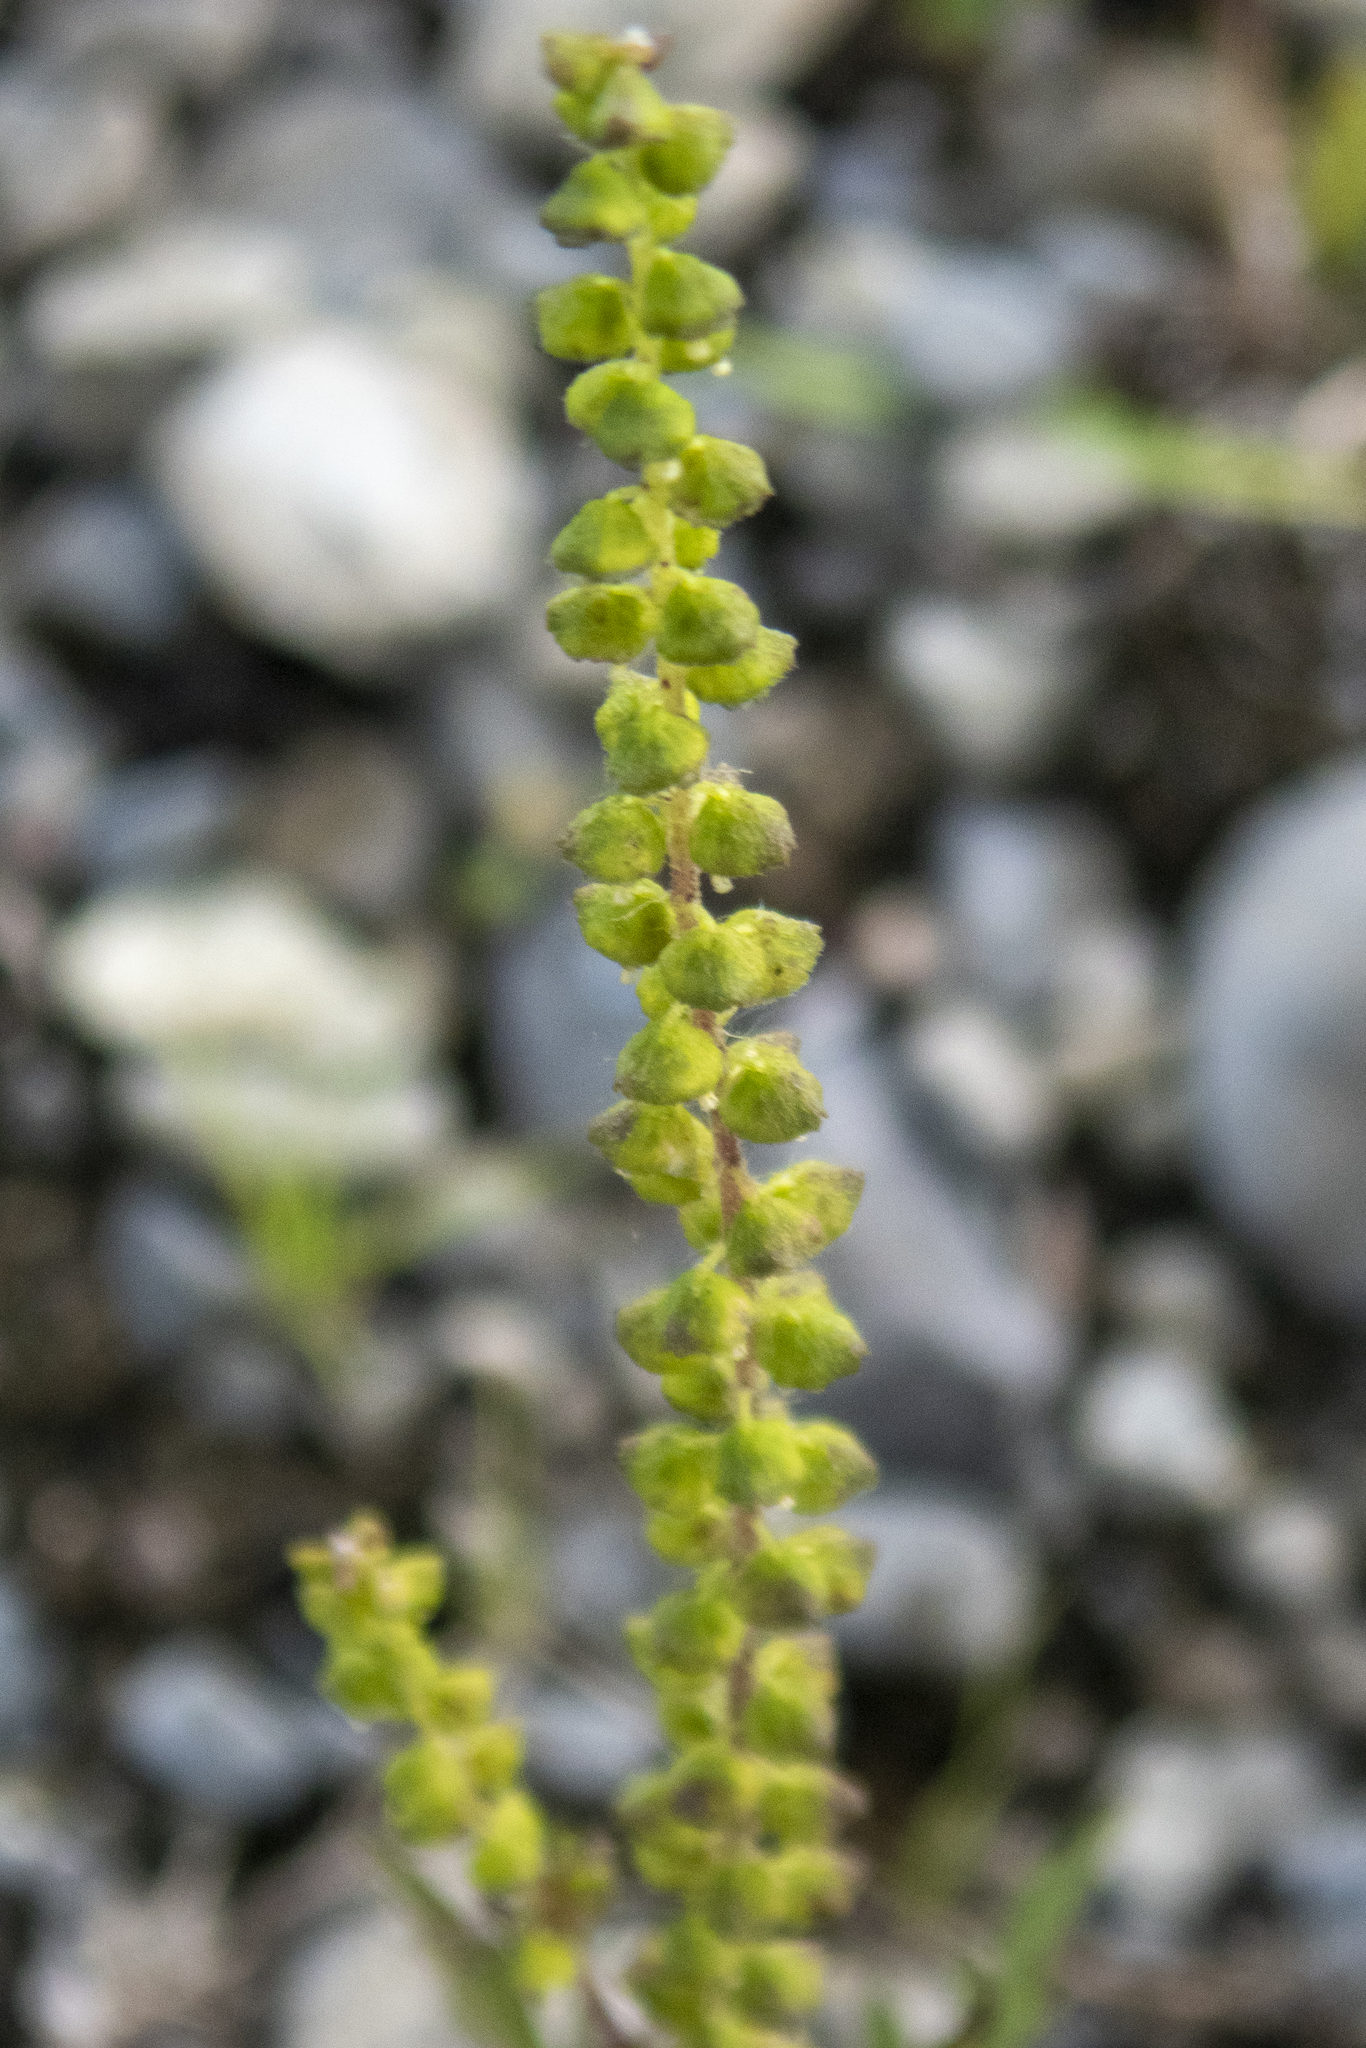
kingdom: Plantae
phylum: Tracheophyta
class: Magnoliopsida
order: Asterales
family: Asteraceae
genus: Ambrosia
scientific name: Ambrosia artemisiifolia
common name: Annual ragweed
